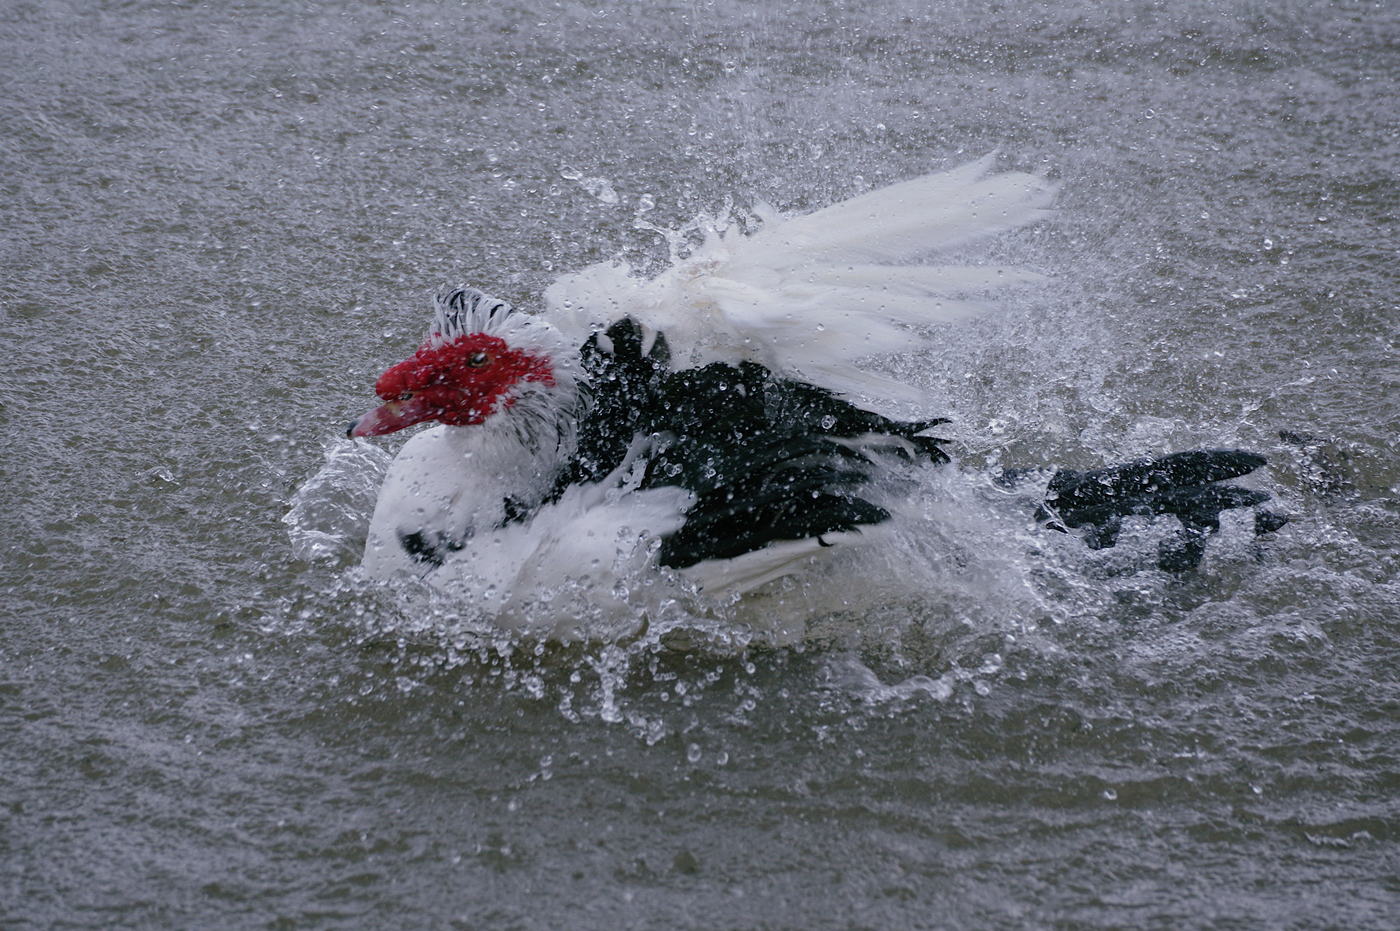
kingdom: Animalia
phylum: Chordata
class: Aves
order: Anseriformes
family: Anatidae
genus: Cairina
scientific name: Cairina moschata
